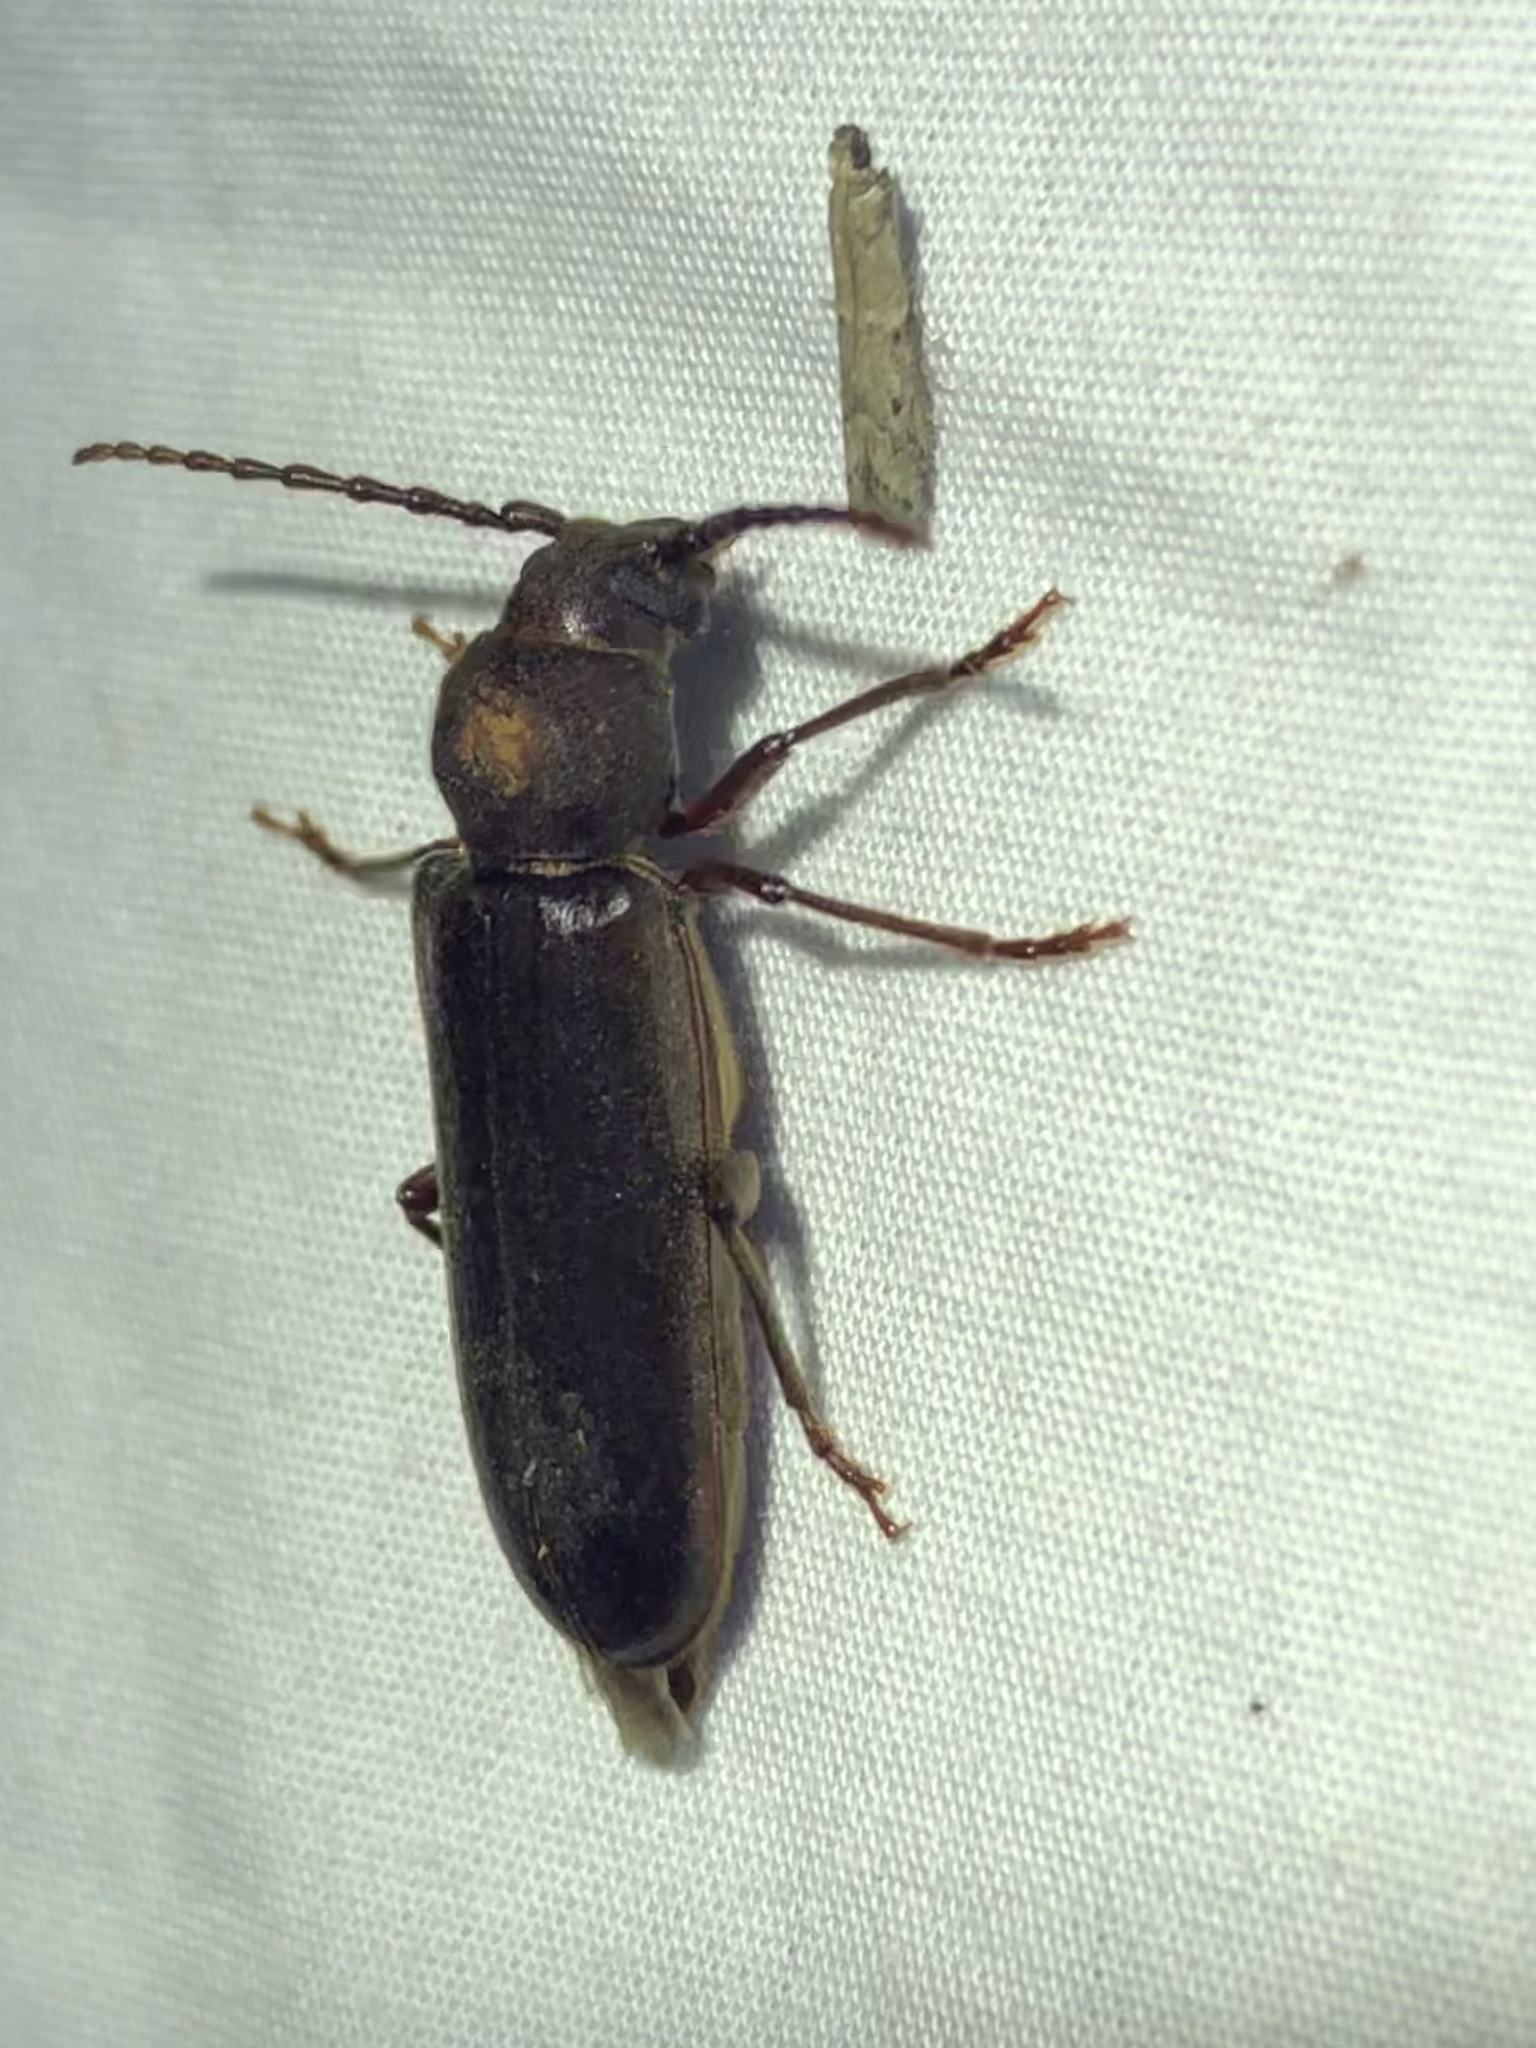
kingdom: Animalia
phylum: Arthropoda
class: Insecta
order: Coleoptera
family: Cerambycidae
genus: Megasemum
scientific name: Megasemum asperum
